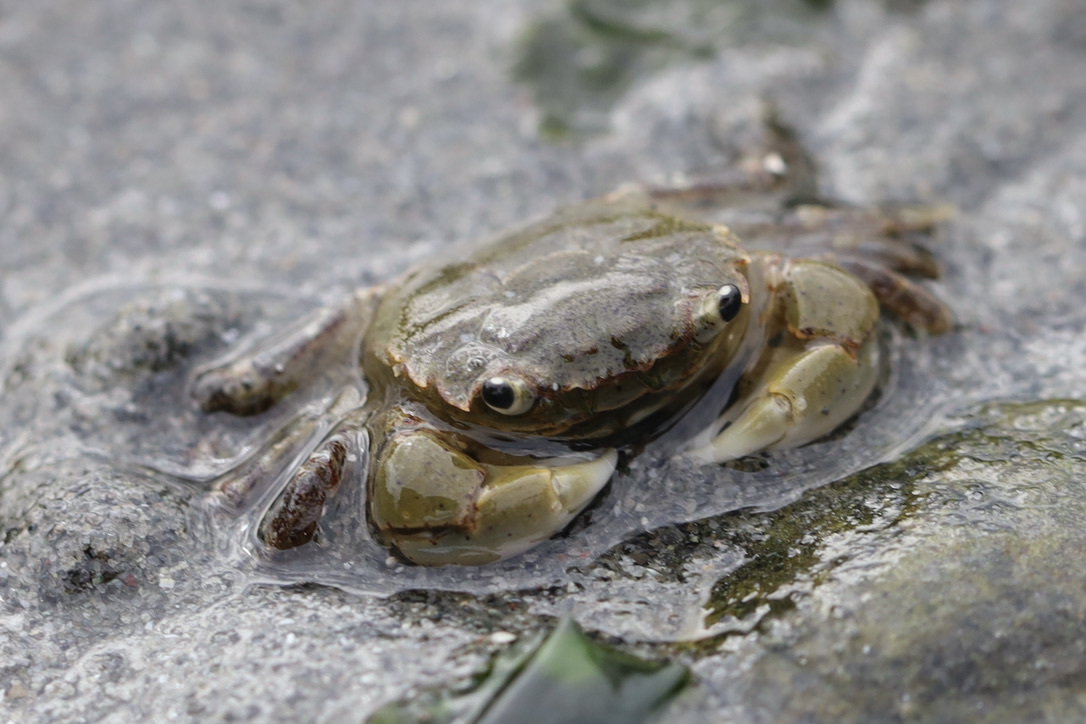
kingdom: Animalia
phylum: Arthropoda
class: Malacostraca
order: Decapoda
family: Varunidae
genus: Hemigrapsus
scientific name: Hemigrapsus oregonensis
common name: Yellow shore crab
